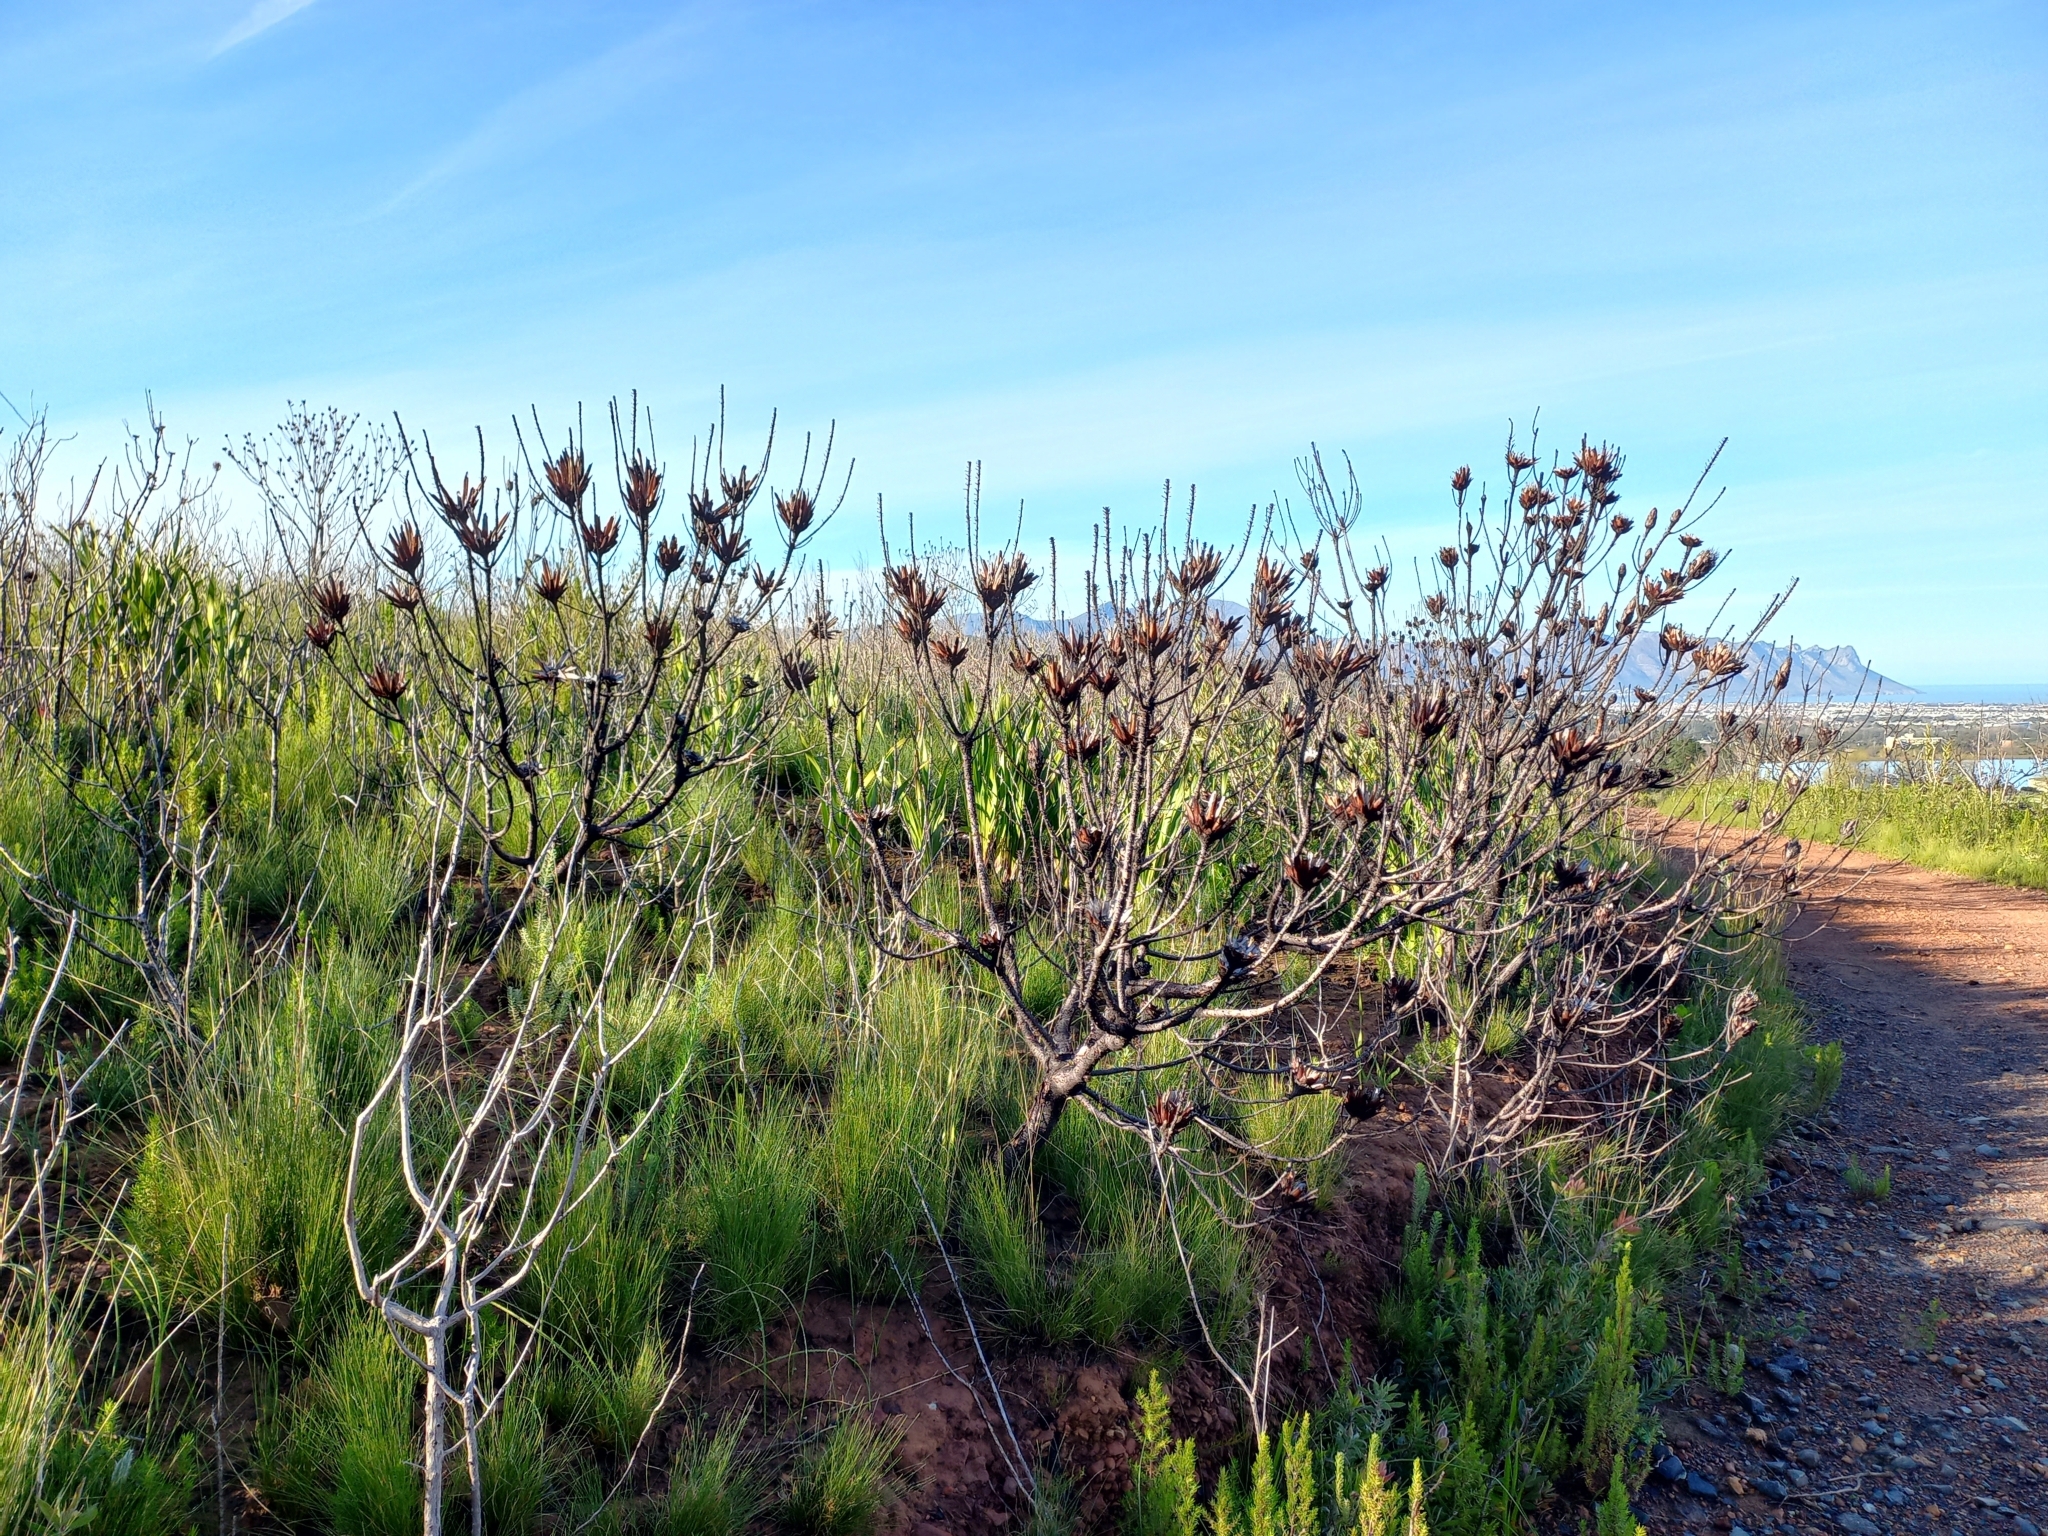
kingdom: Plantae
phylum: Tracheophyta
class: Magnoliopsida
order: Proteales
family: Proteaceae
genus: Protea
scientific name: Protea repens
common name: Sugarbush
